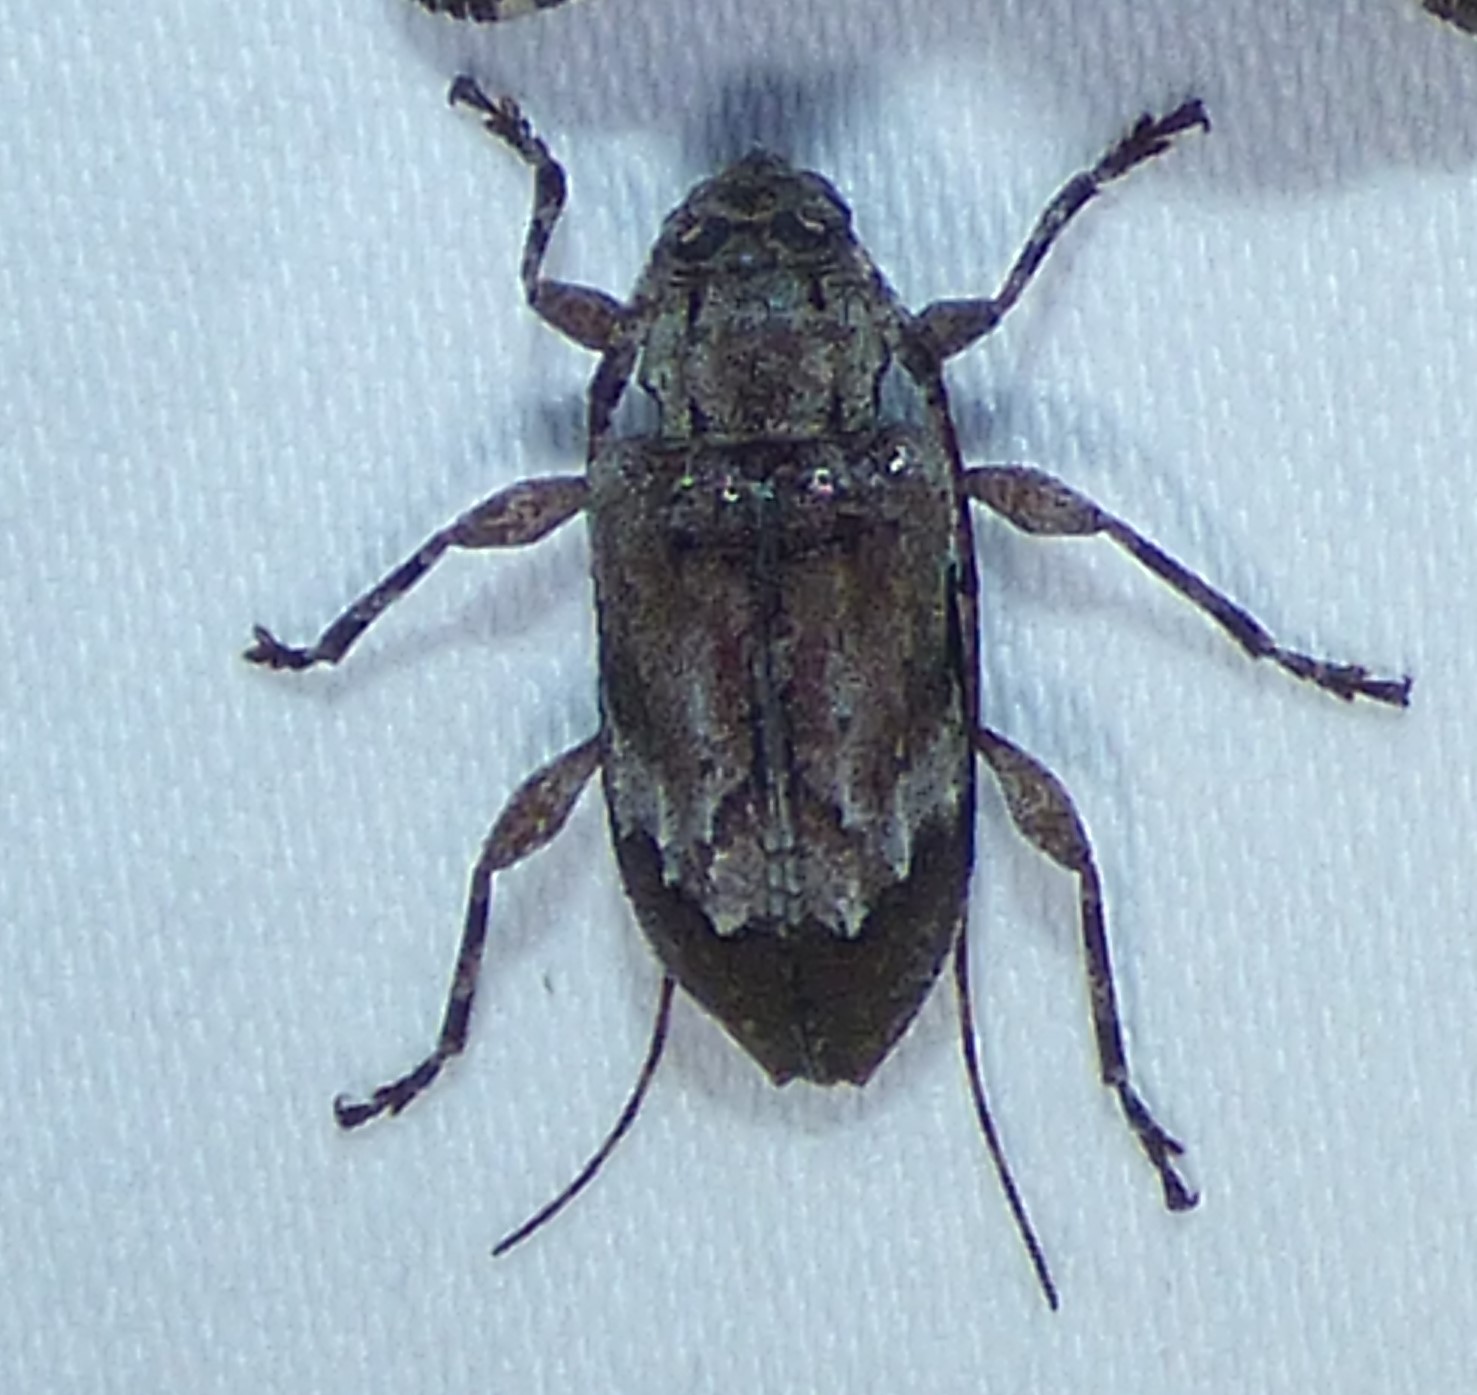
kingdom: Animalia
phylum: Arthropoda
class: Insecta
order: Coleoptera
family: Cerambycidae
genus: Astylopsis
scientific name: Astylopsis arcuata
